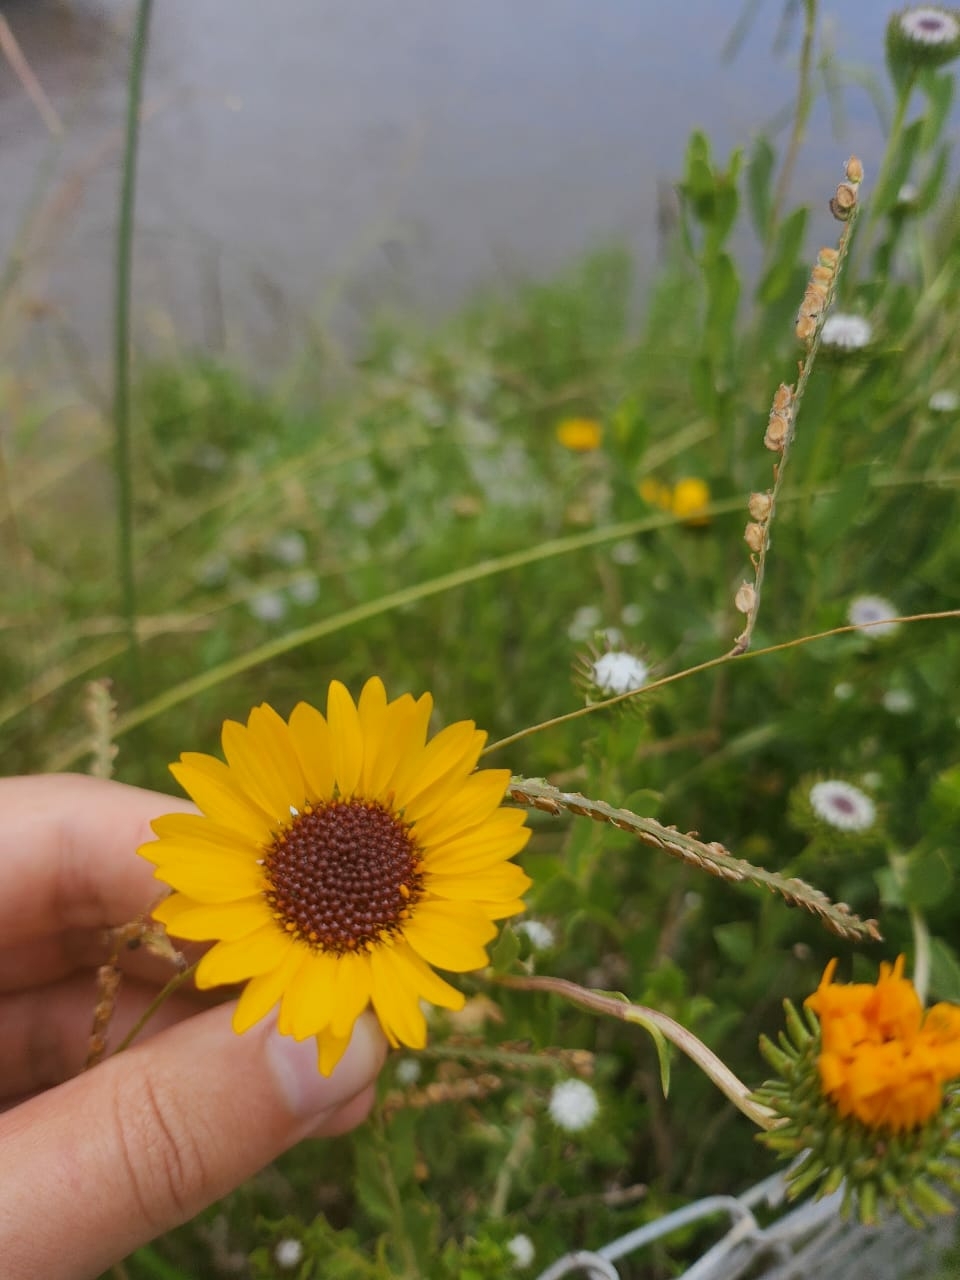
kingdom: Plantae
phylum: Tracheophyta
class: Magnoliopsida
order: Asterales
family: Asteraceae
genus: Grindelia
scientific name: Grindelia pulchella
